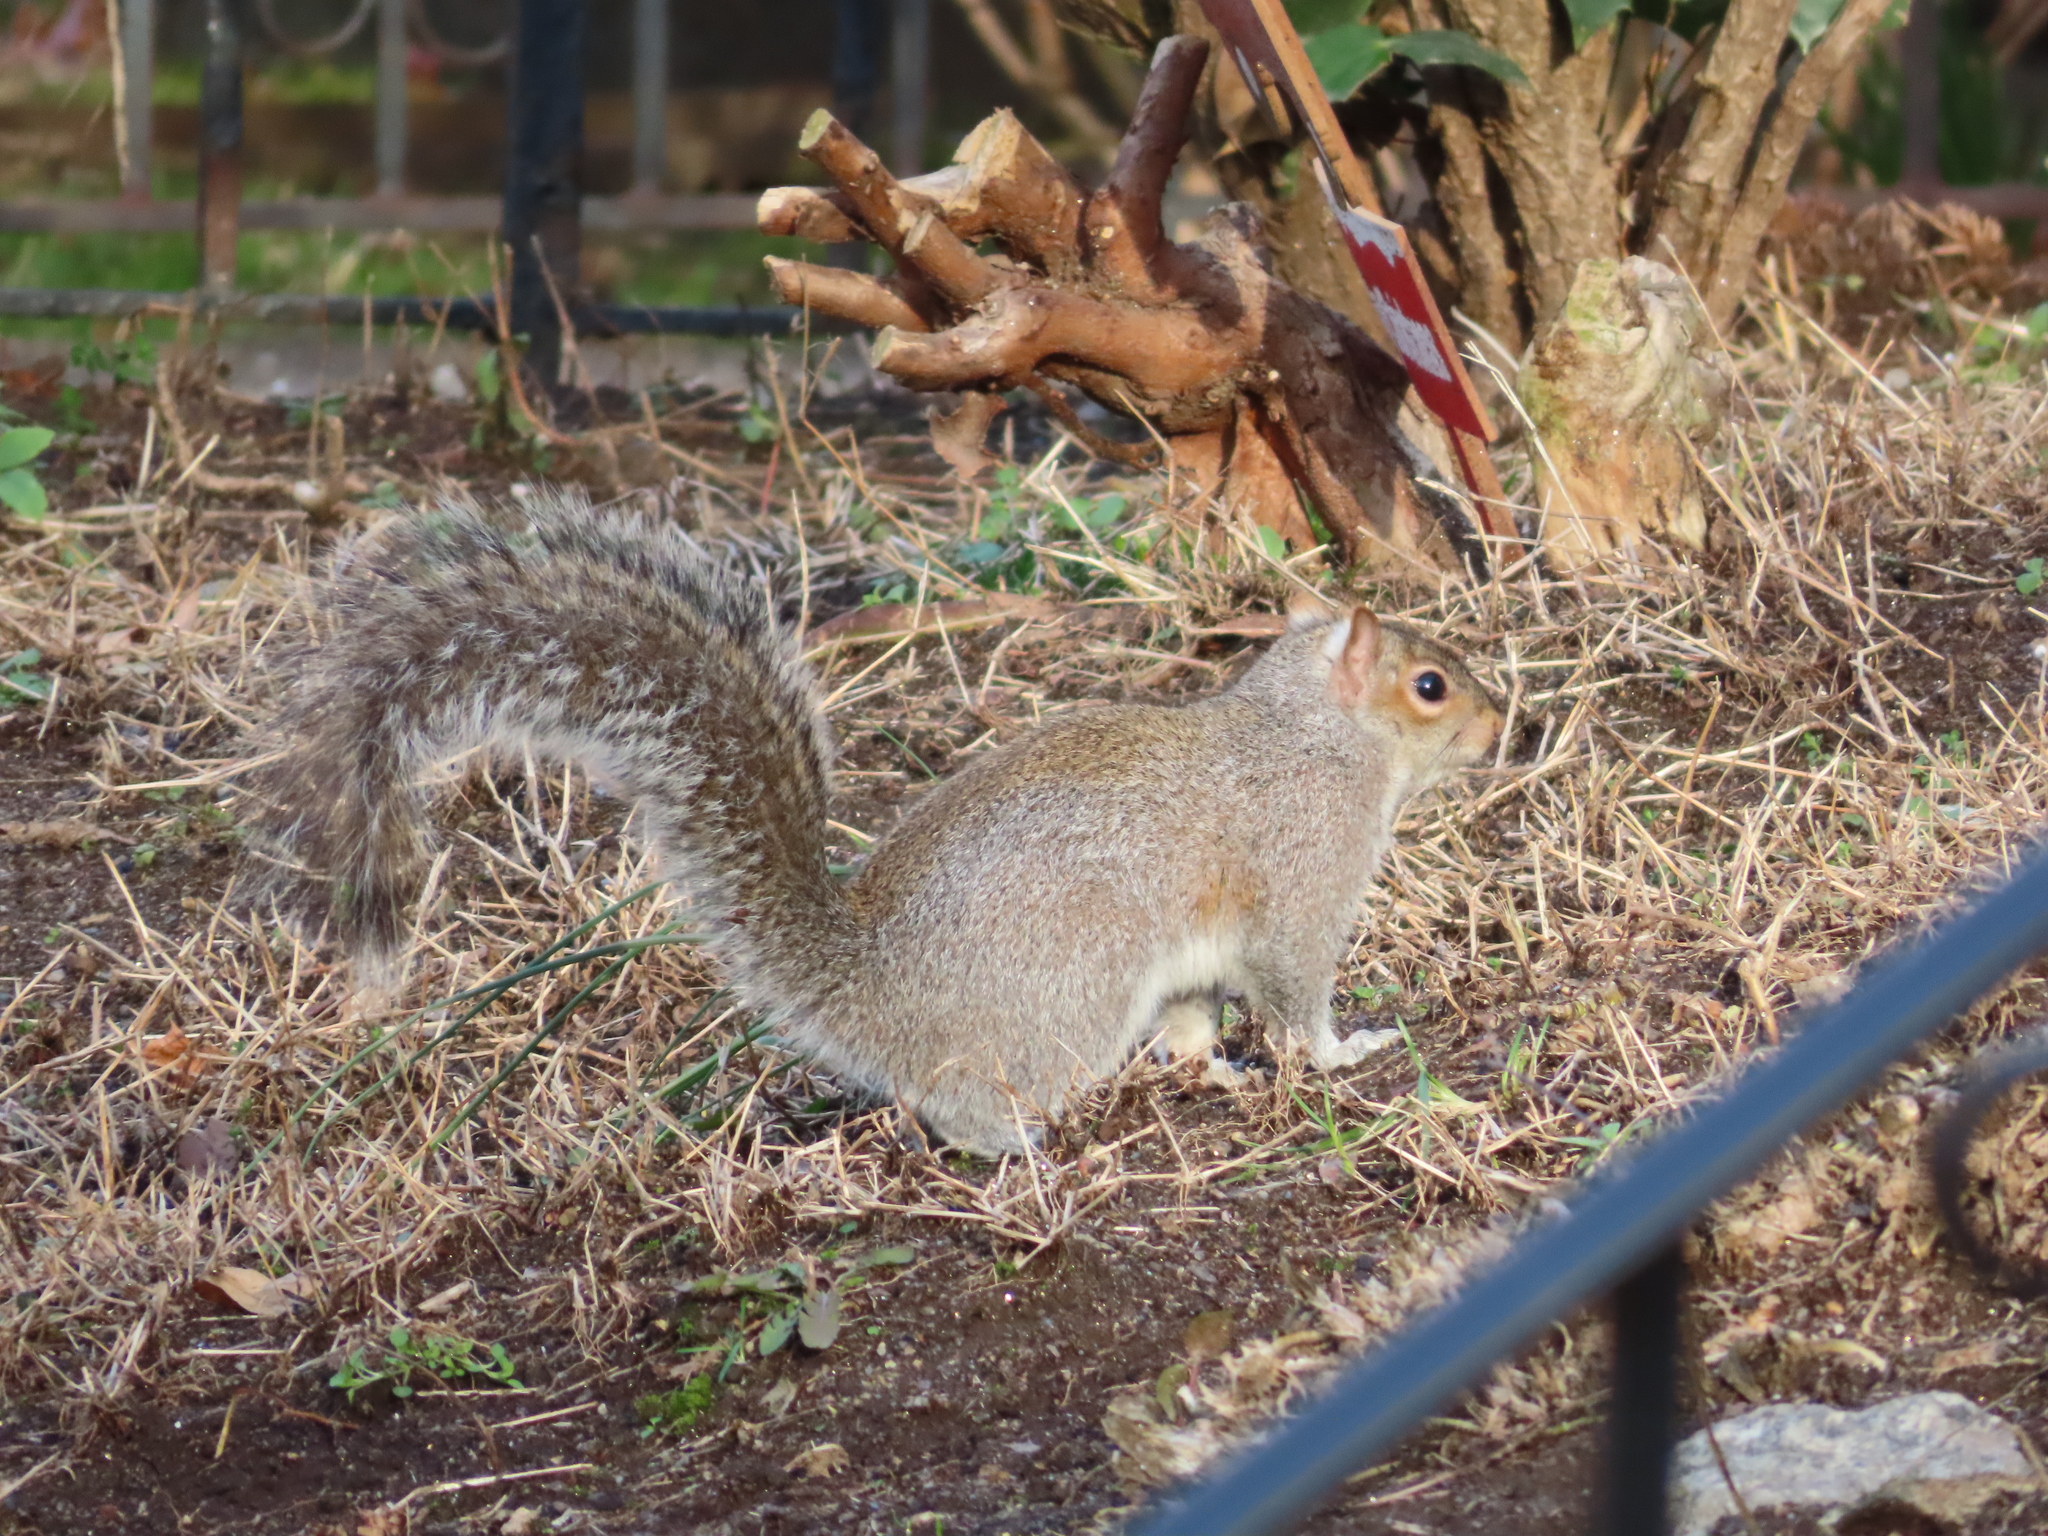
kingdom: Animalia
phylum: Chordata
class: Mammalia
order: Rodentia
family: Sciuridae
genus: Sciurus
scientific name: Sciurus carolinensis
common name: Eastern gray squirrel
